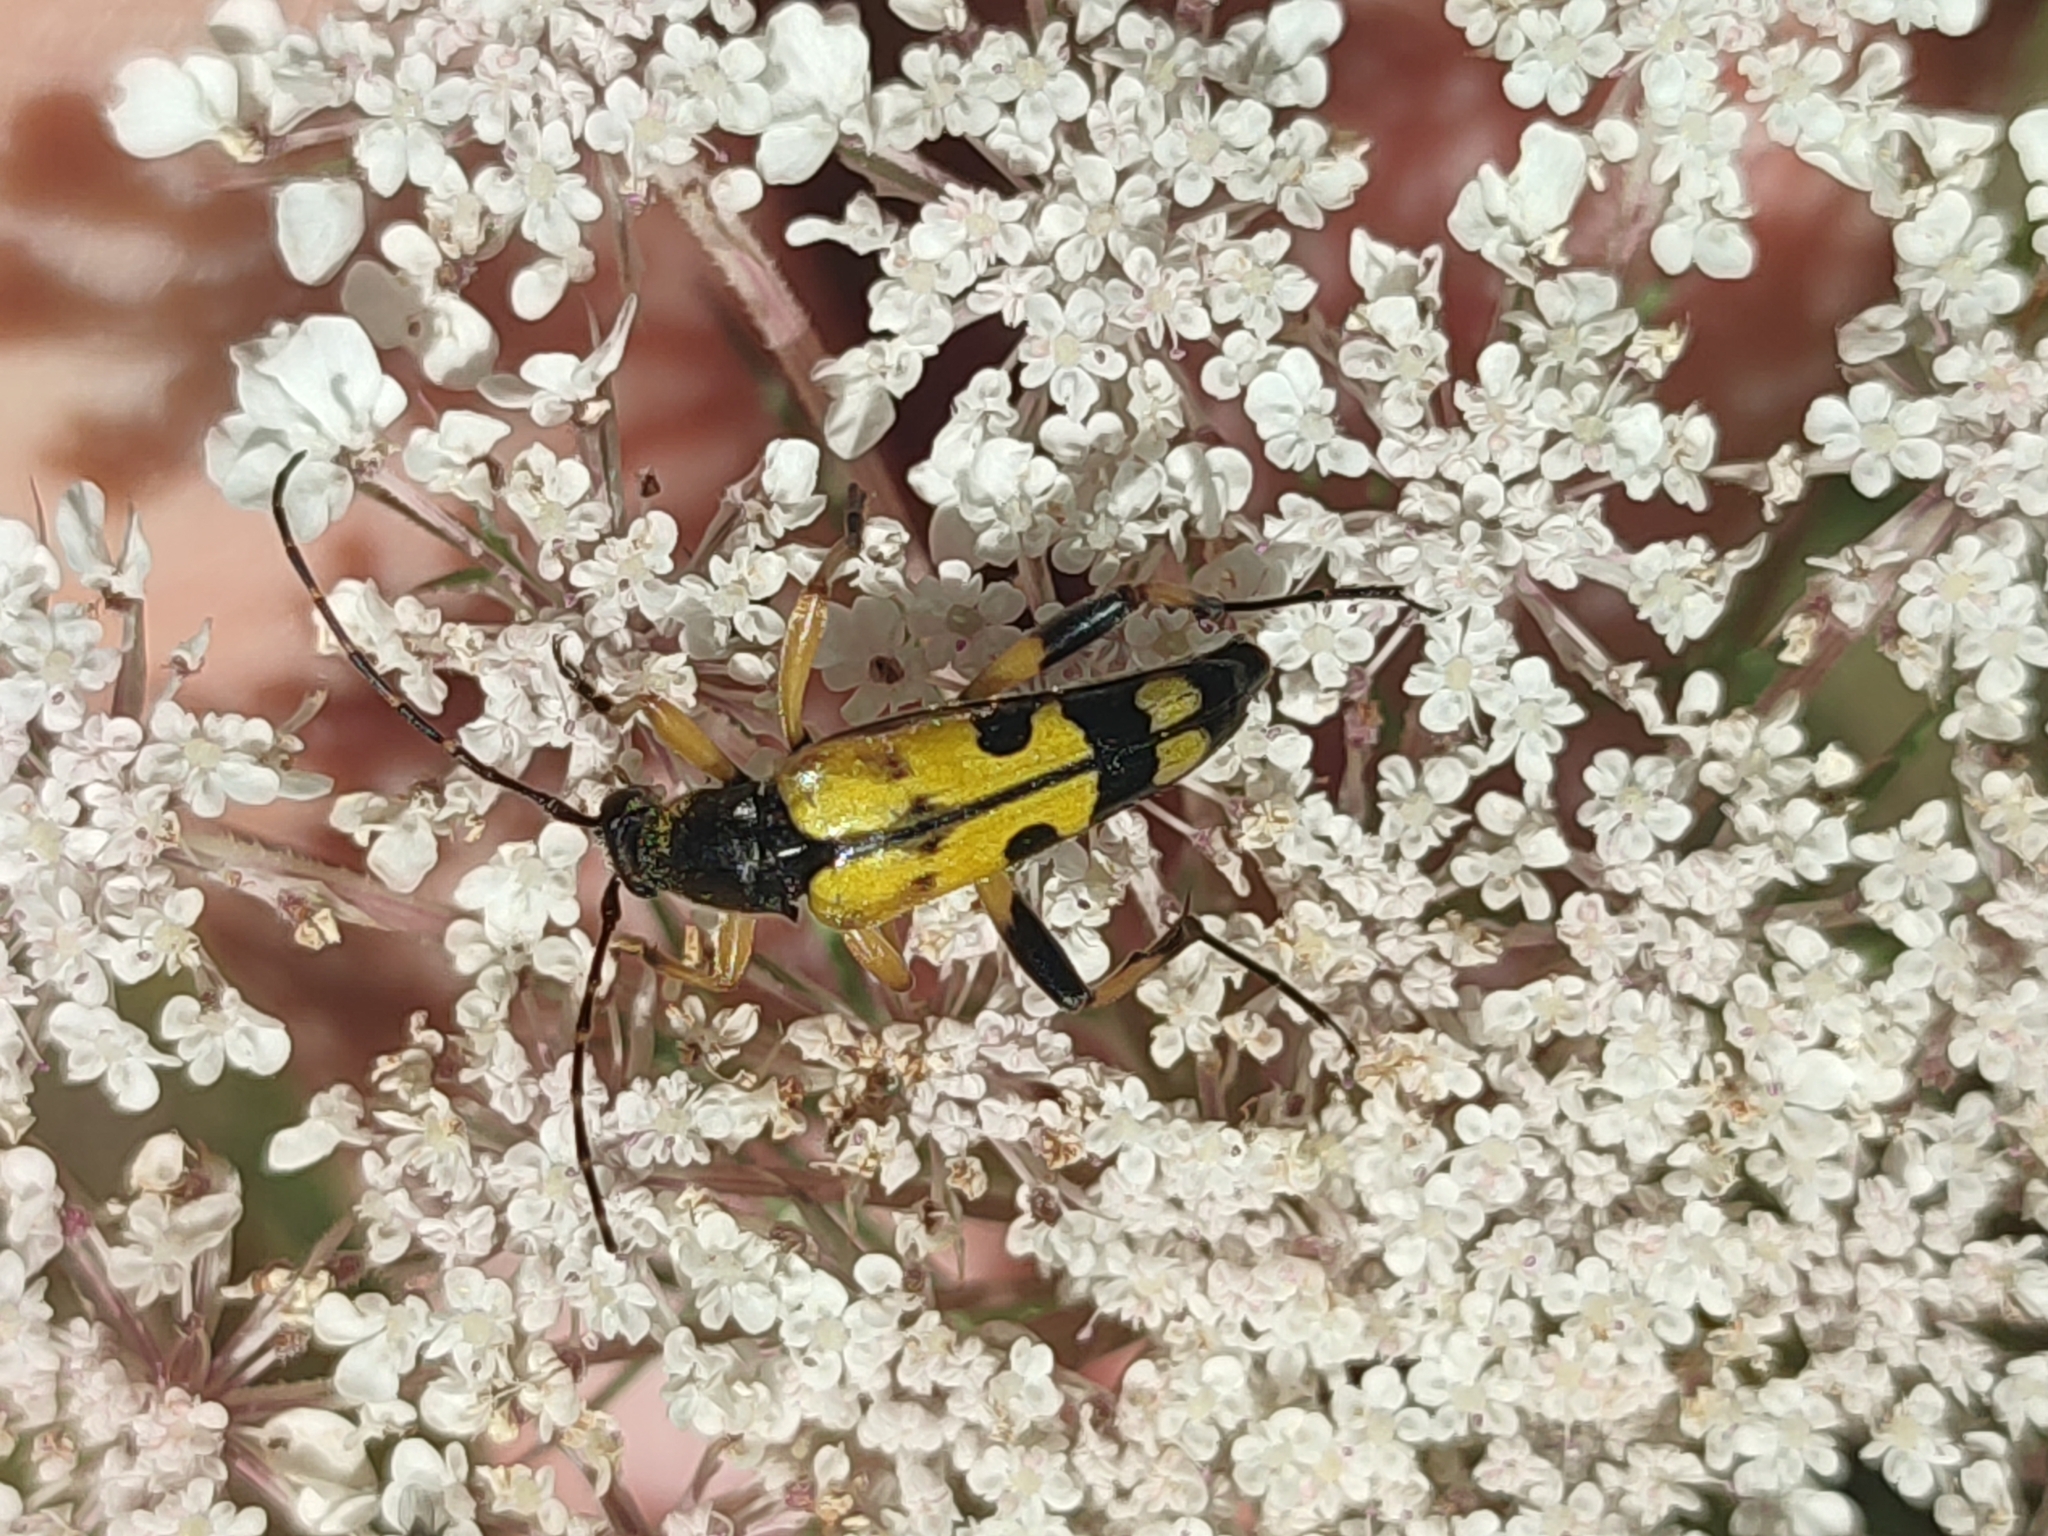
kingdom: Animalia
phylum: Arthropoda
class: Insecta
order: Coleoptera
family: Cerambycidae
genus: Rutpela
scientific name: Rutpela maculata
